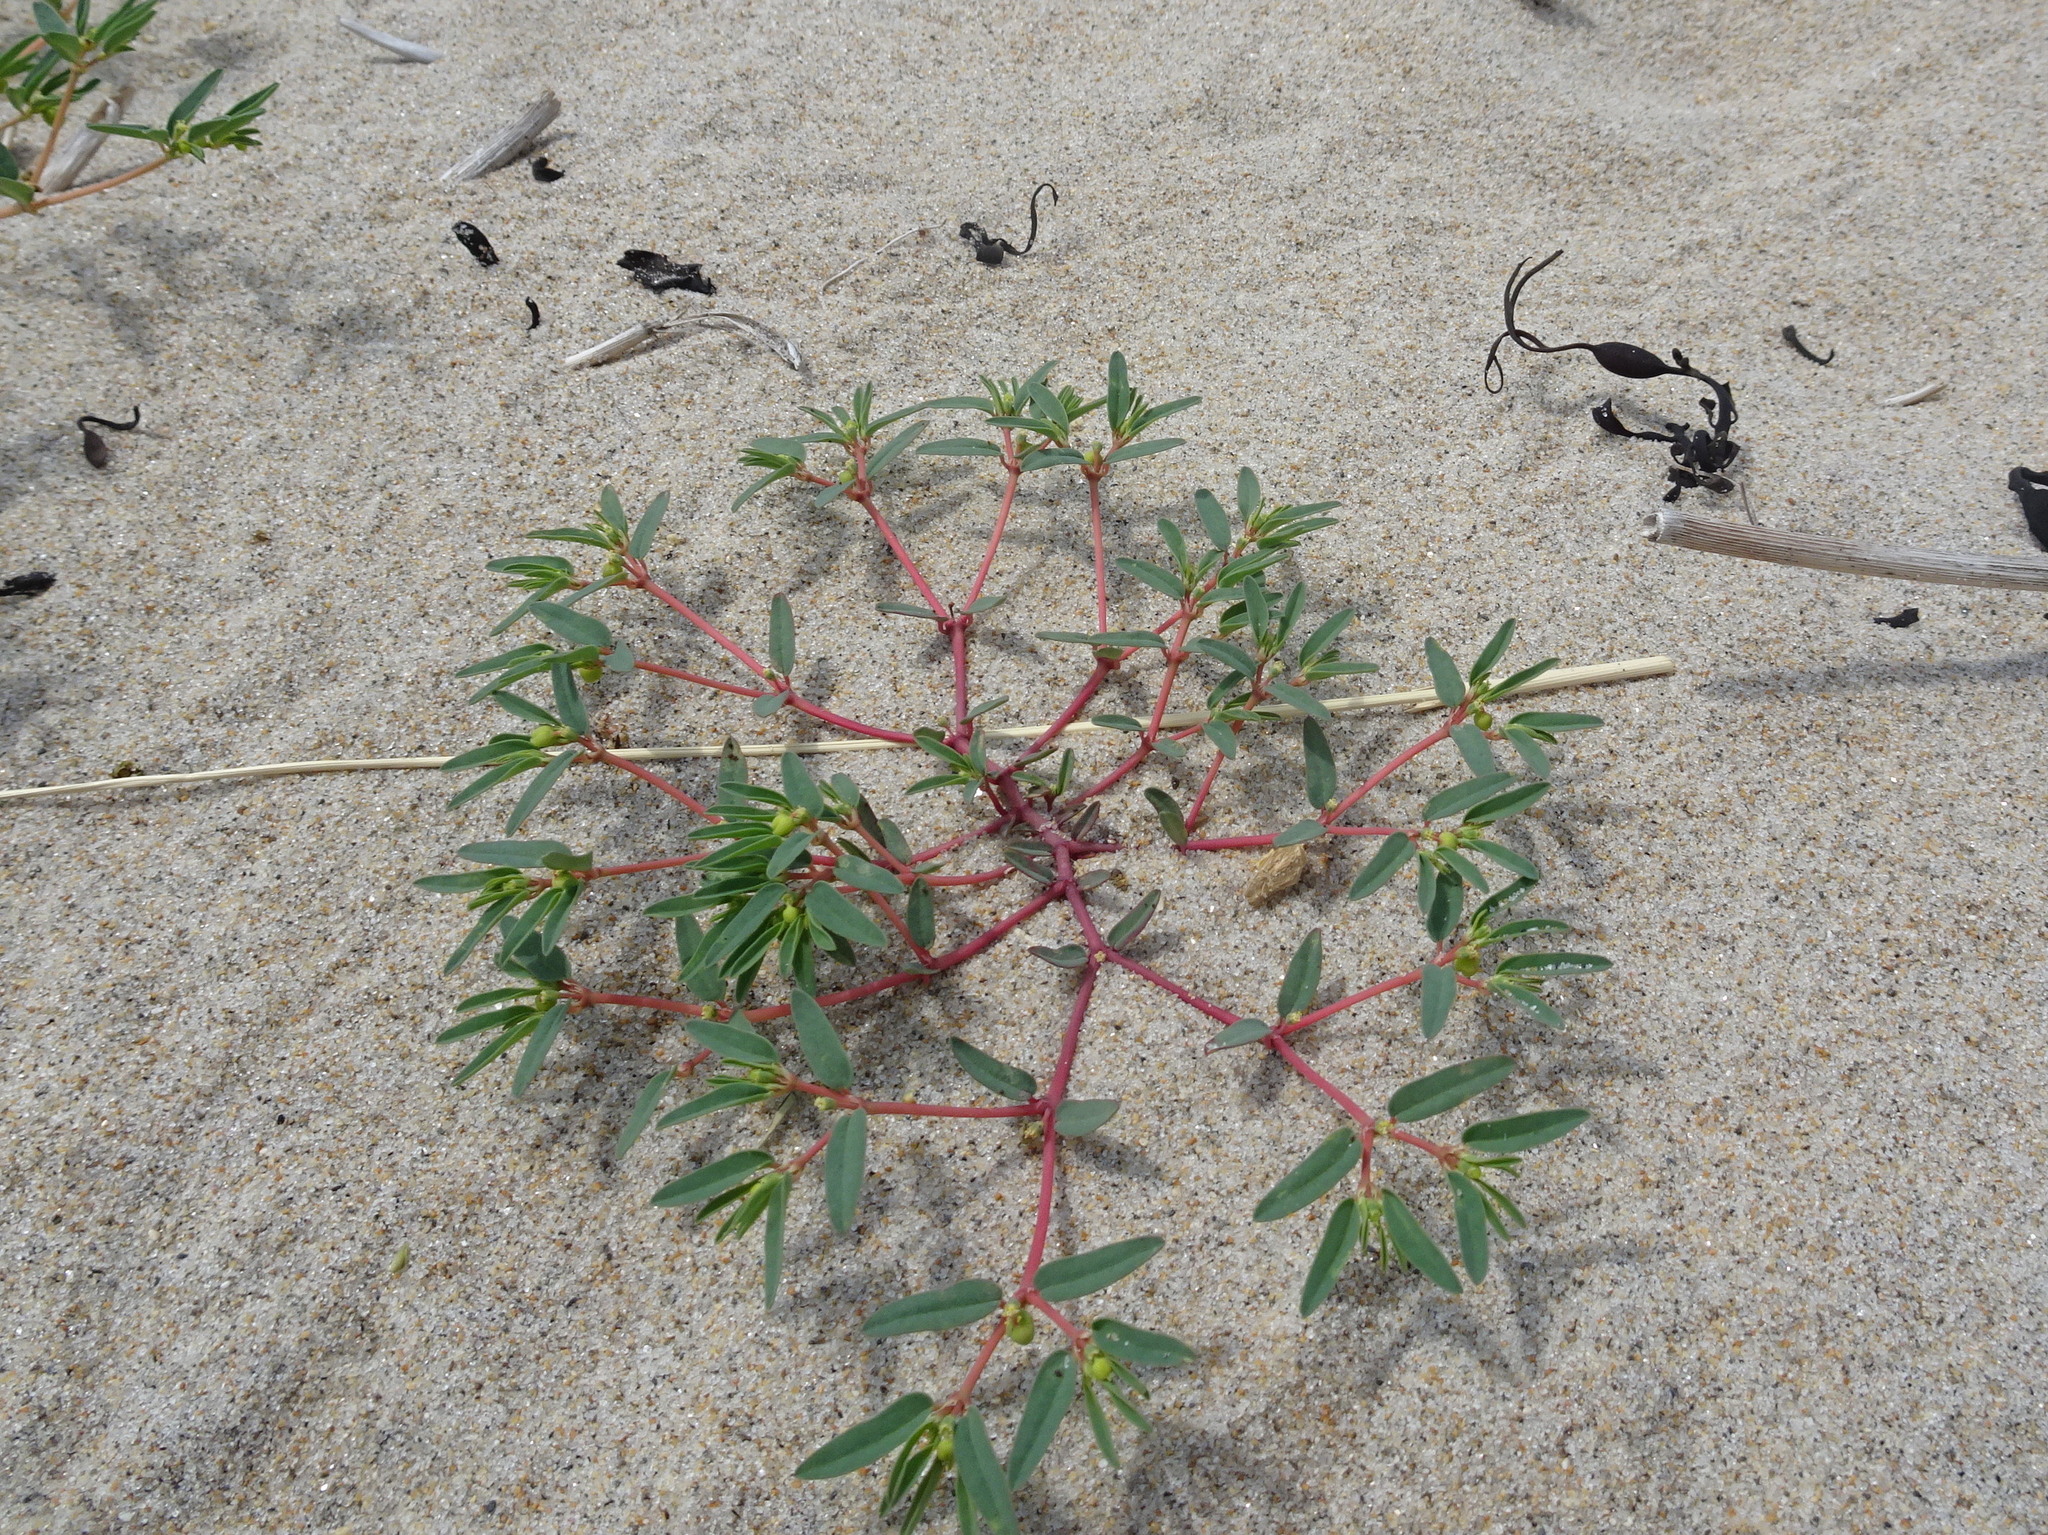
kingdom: Plantae
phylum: Tracheophyta
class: Magnoliopsida
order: Malpighiales
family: Euphorbiaceae
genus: Euphorbia
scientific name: Euphorbia polygonifolia
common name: Knotweed spurge
